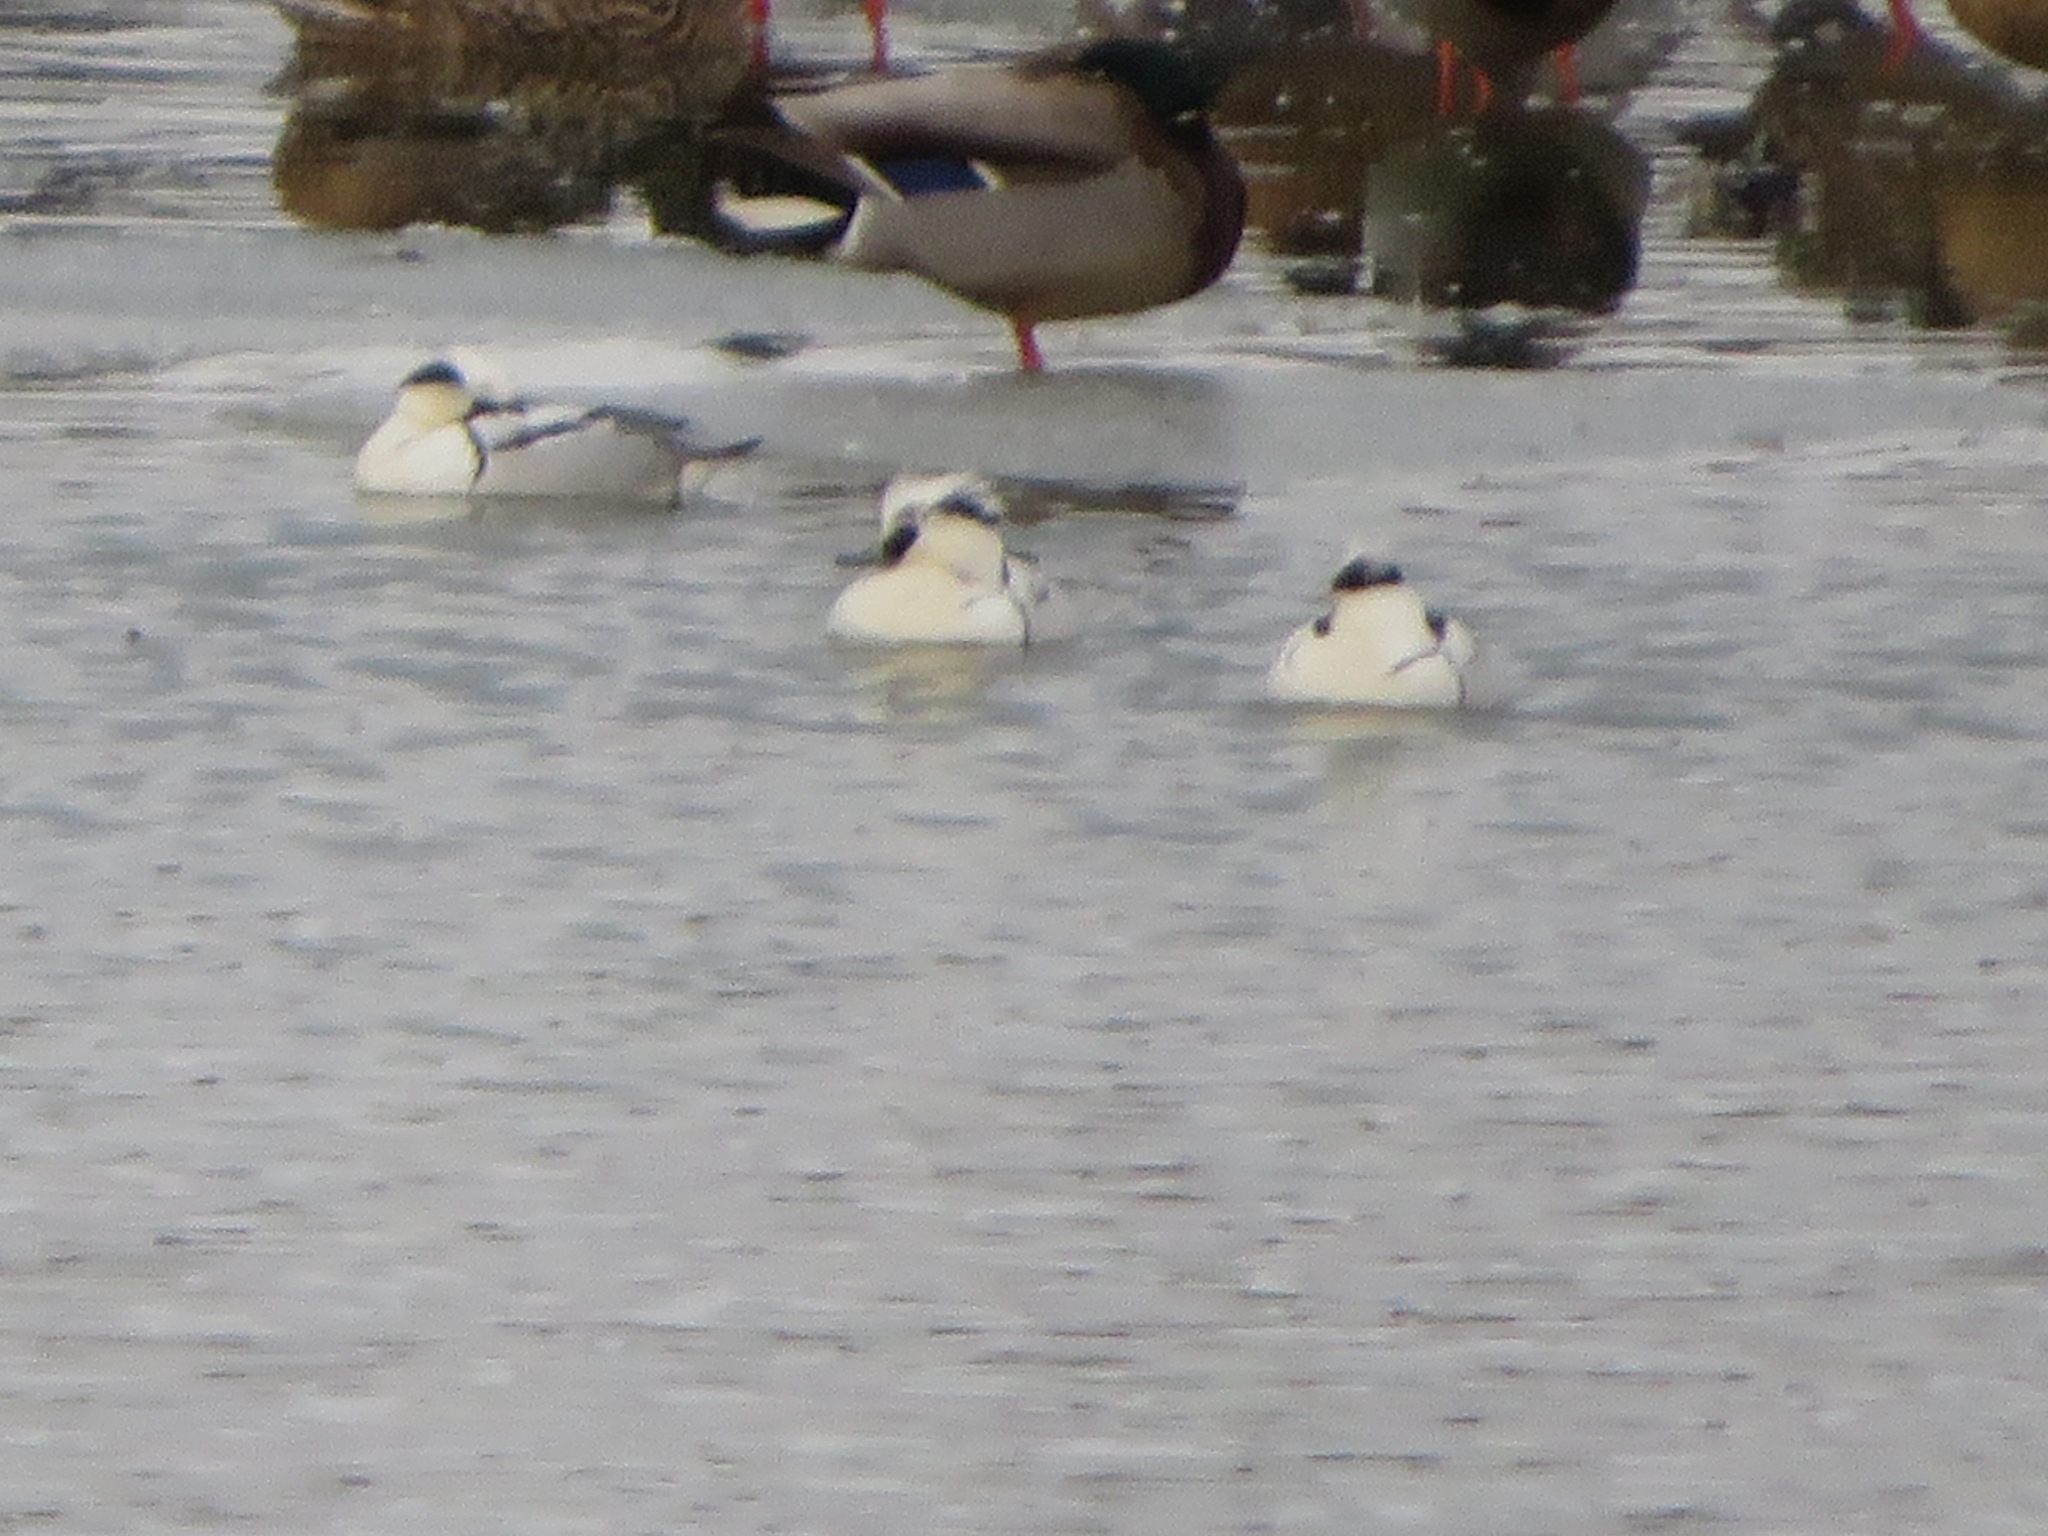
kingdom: Animalia
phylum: Chordata
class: Aves
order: Anseriformes
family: Anatidae
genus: Mergellus
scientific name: Mergellus albellus
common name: Smew
